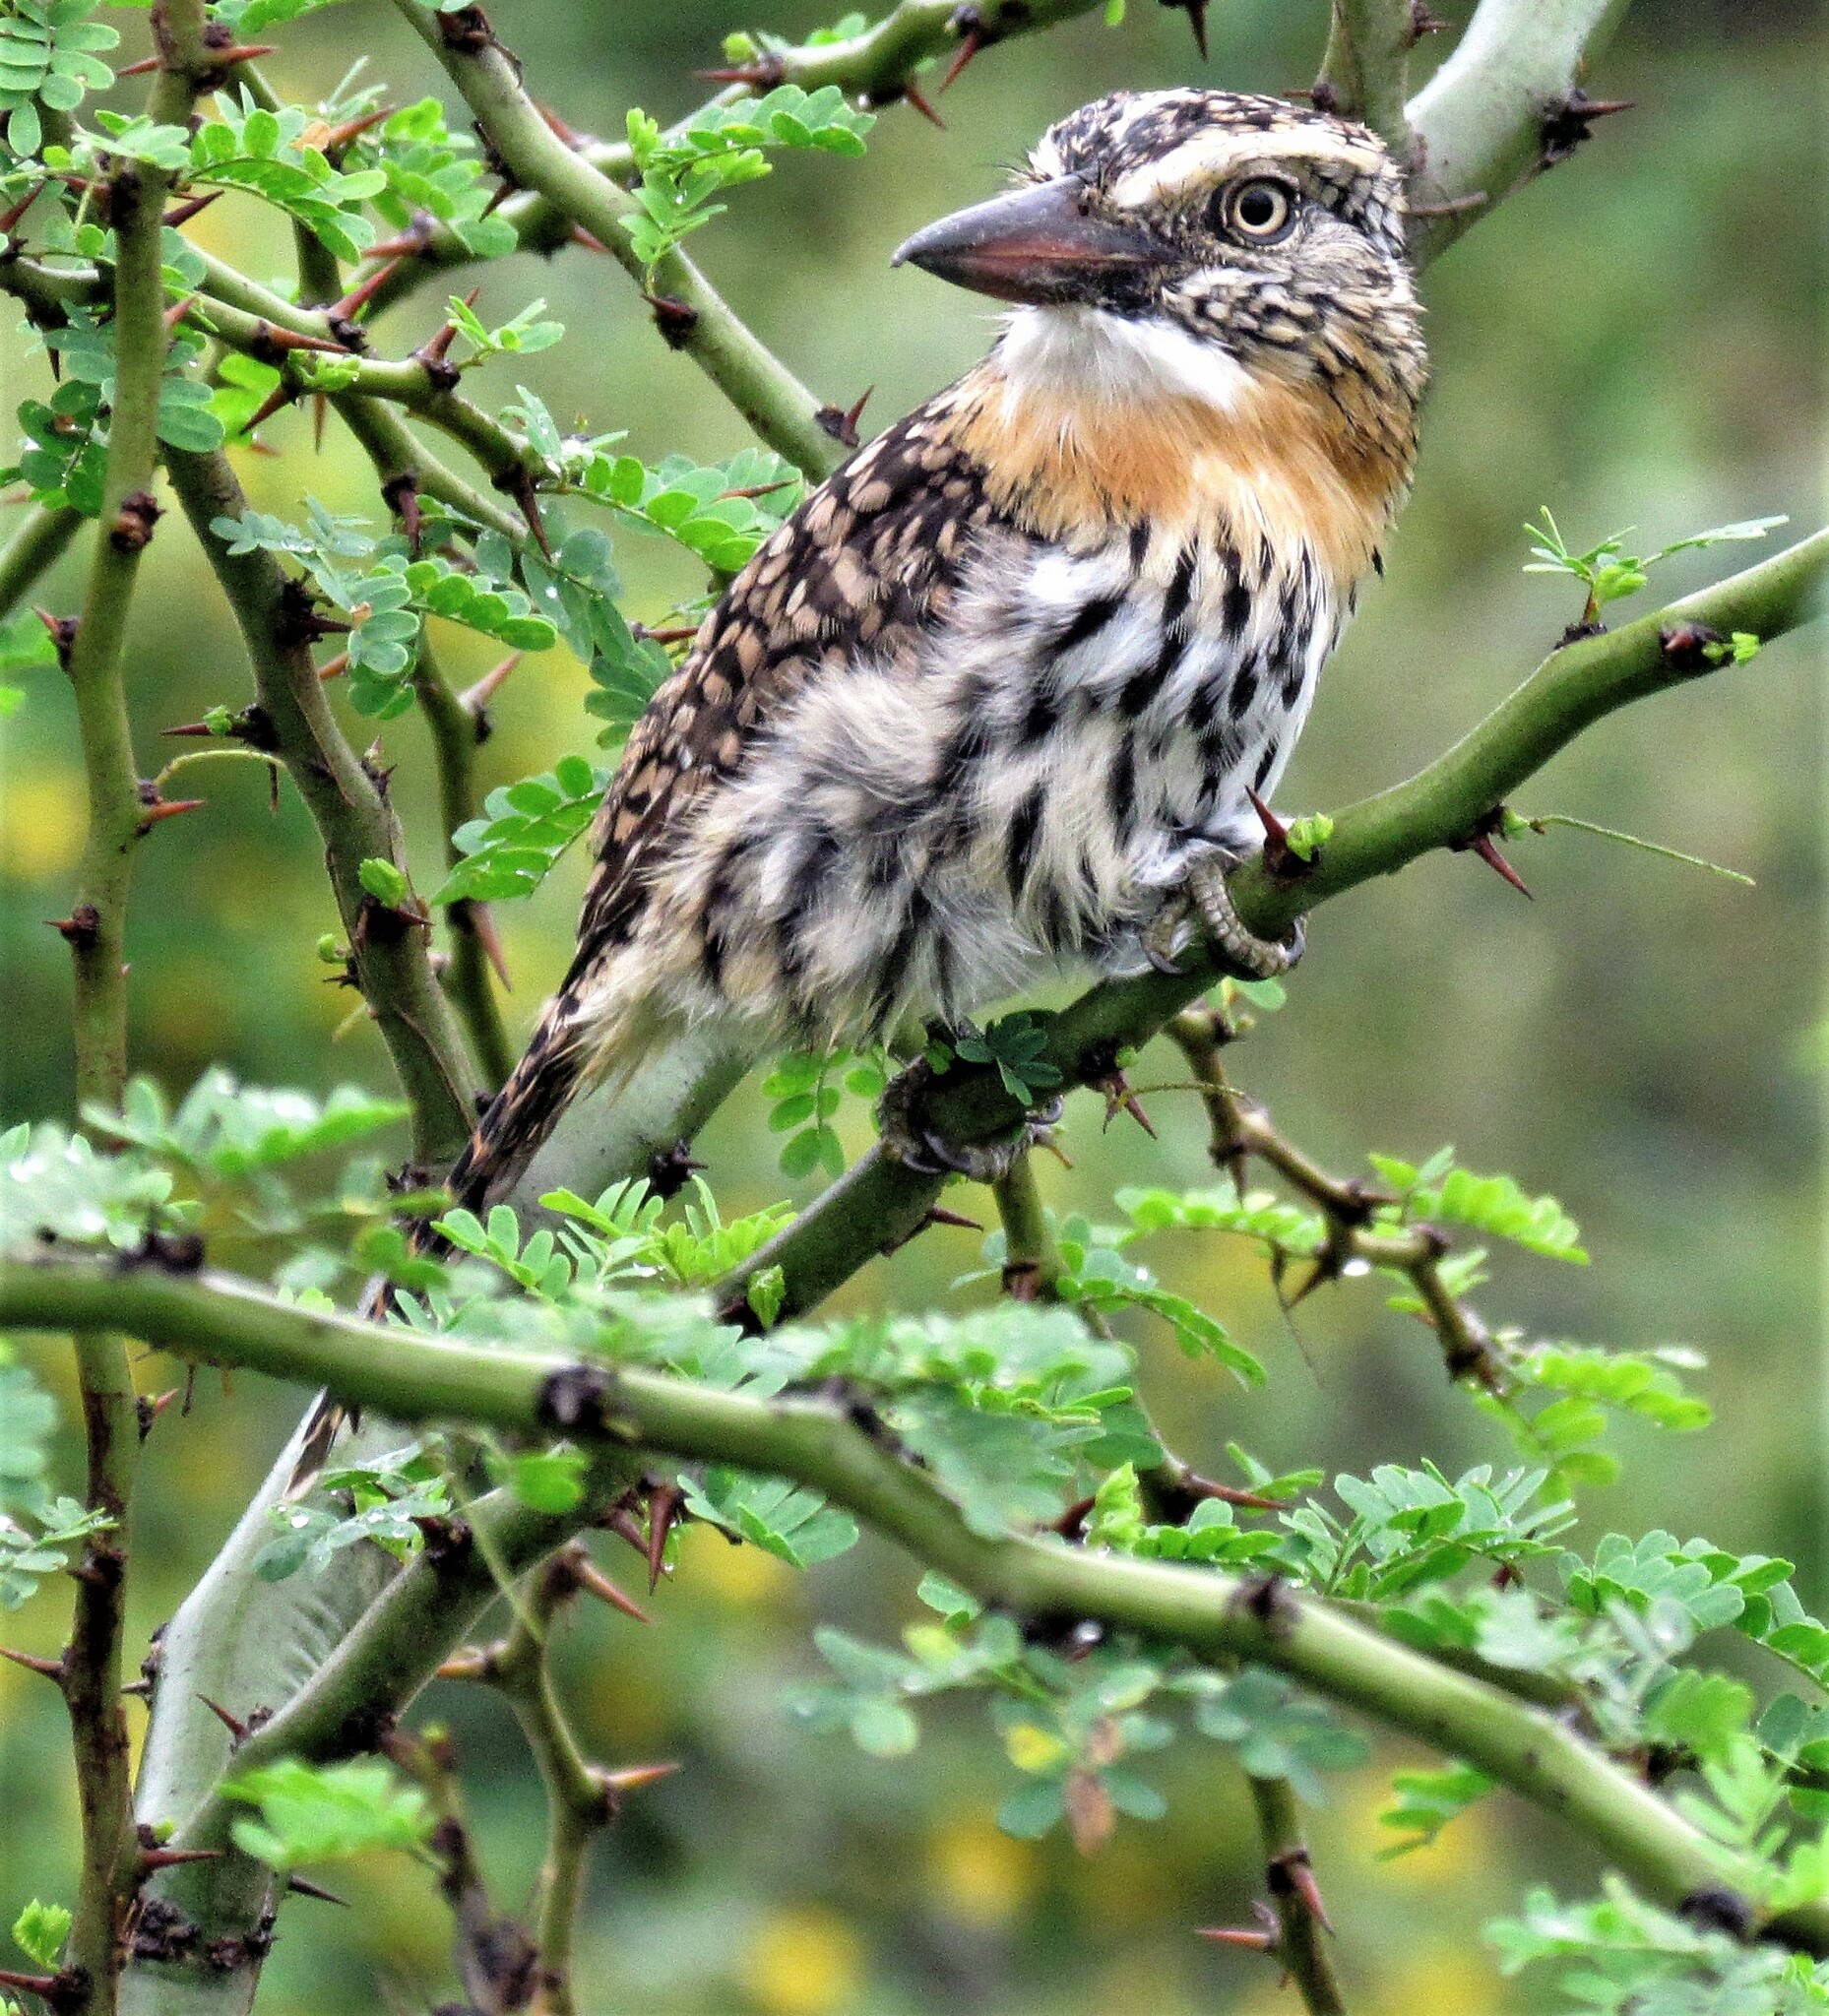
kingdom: Animalia
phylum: Chordata
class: Aves
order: Piciformes
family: Bucconidae
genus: Nystalus
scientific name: Nystalus maculatus
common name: Caatinga puffbird
